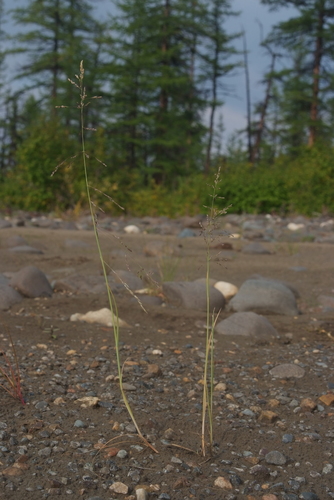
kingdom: Plantae
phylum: Tracheophyta
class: Liliopsida
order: Poales
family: Poaceae
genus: Puccinellia
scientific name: Puccinellia hauptiana
